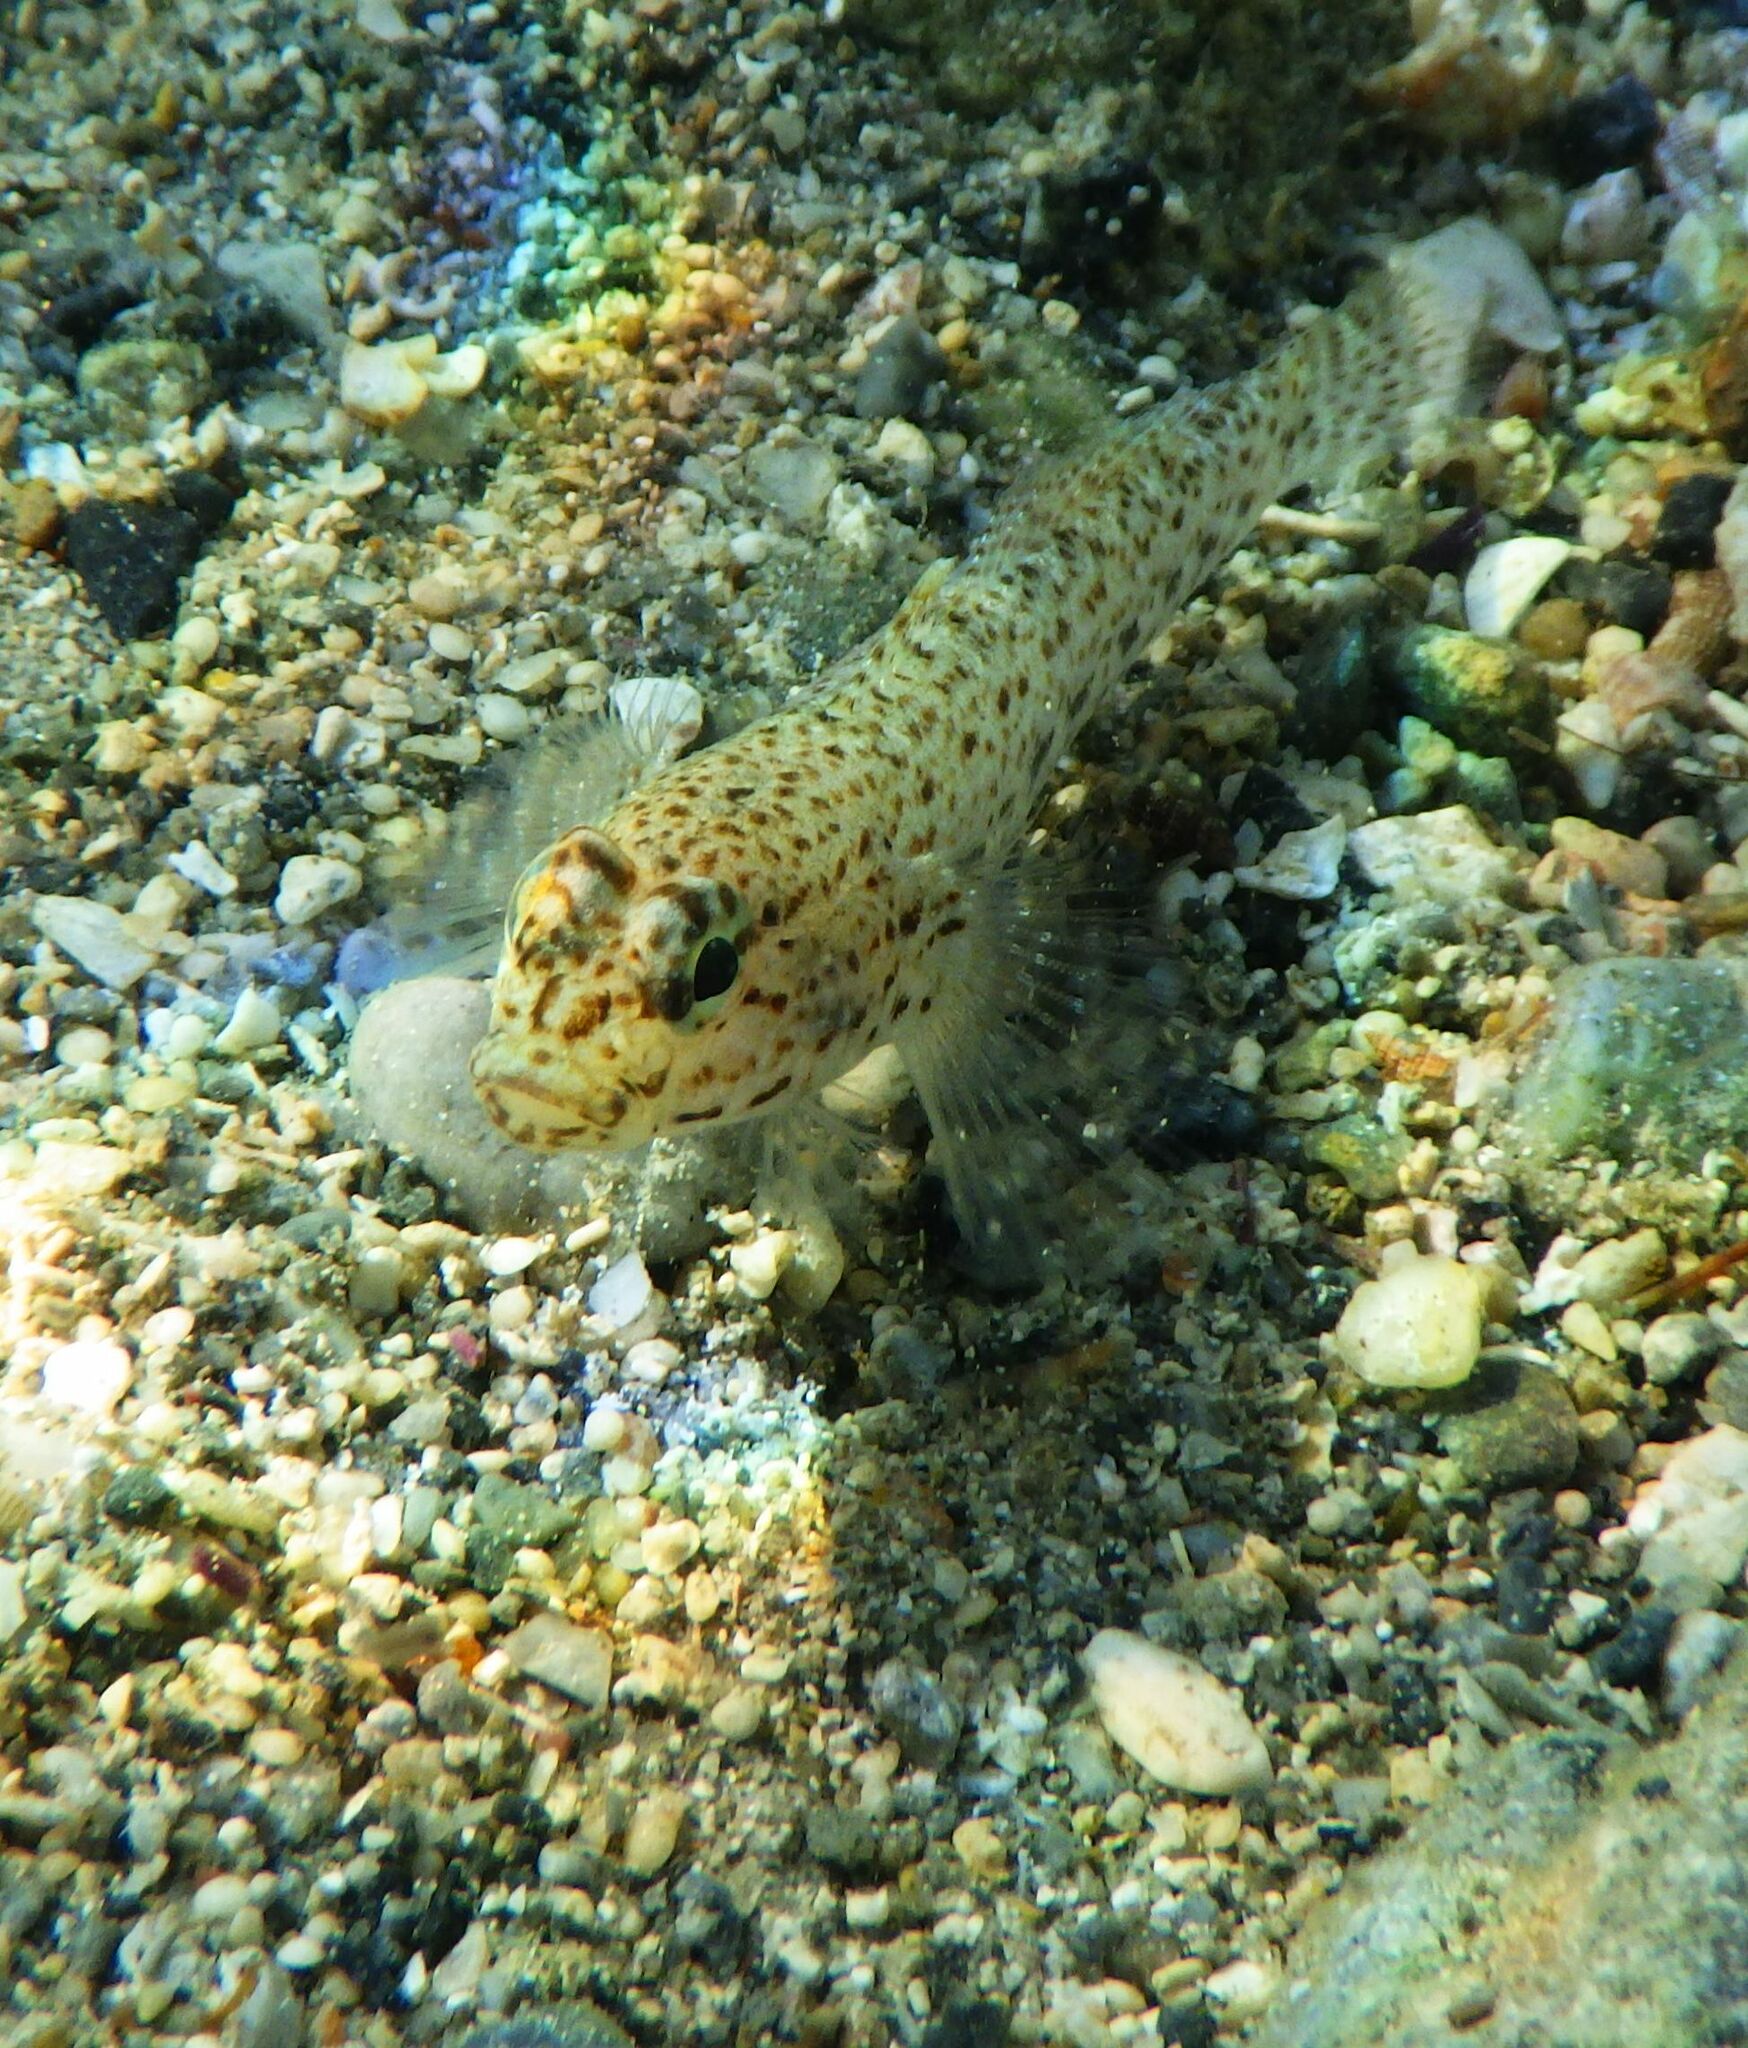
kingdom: Animalia
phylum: Chordata
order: Perciformes
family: Gobiidae
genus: Gobius
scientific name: Gobius incognitus
